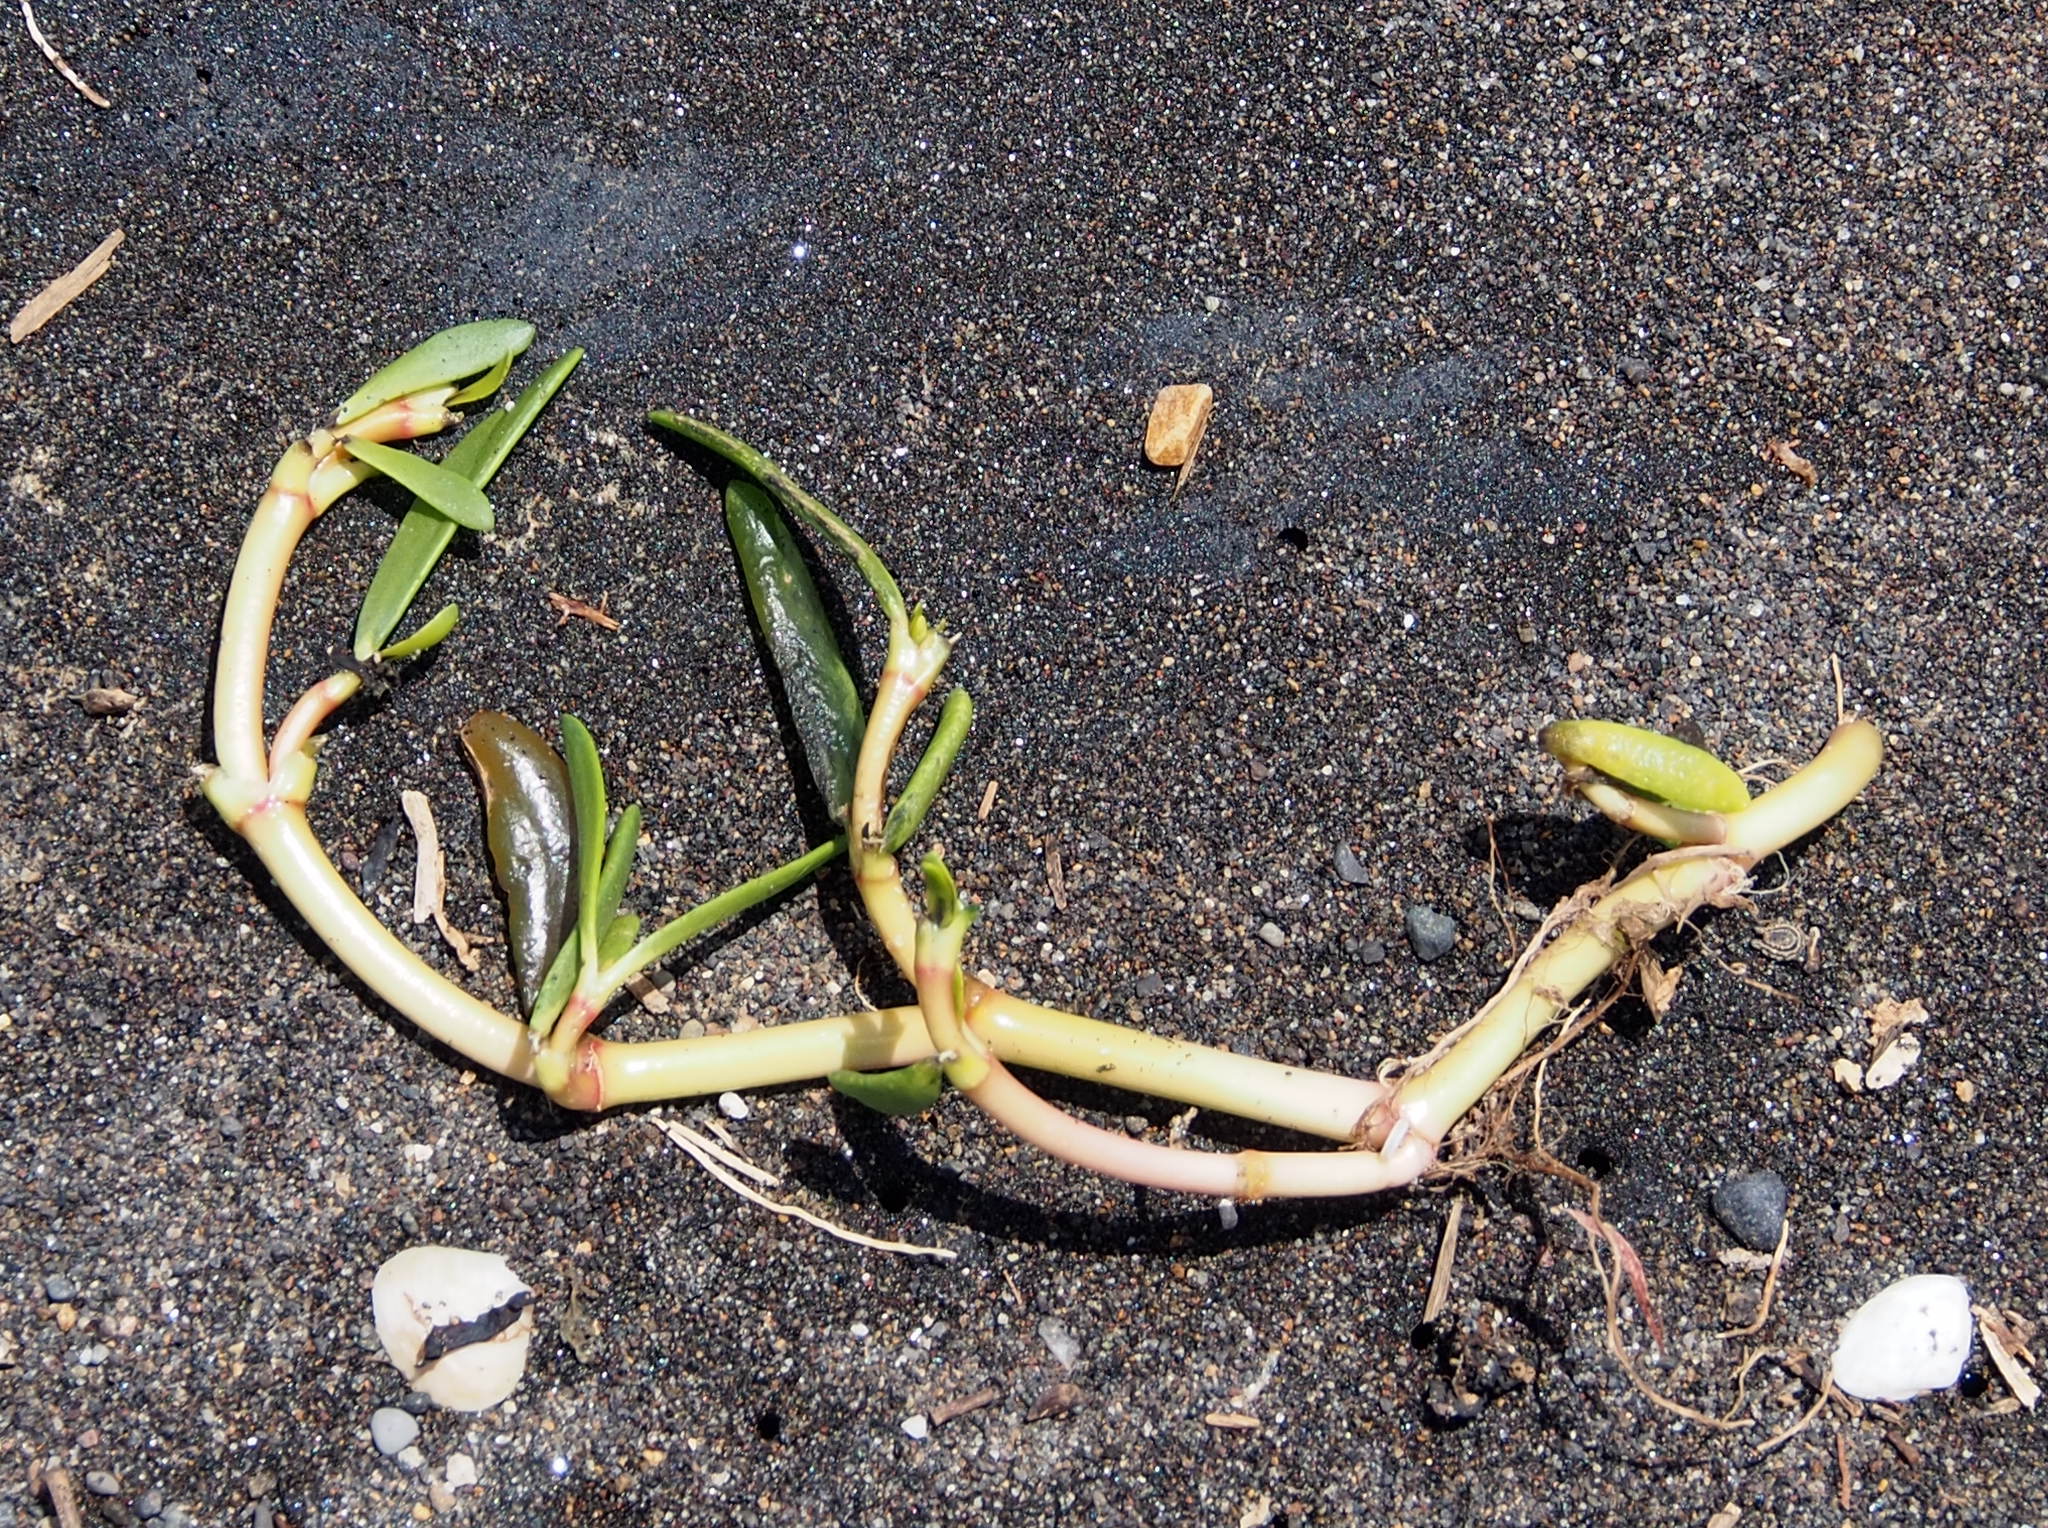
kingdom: Plantae
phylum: Tracheophyta
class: Magnoliopsida
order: Caryophyllales
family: Aizoaceae
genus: Sesuvium
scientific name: Sesuvium portulacastrum
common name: Sea-purslane
